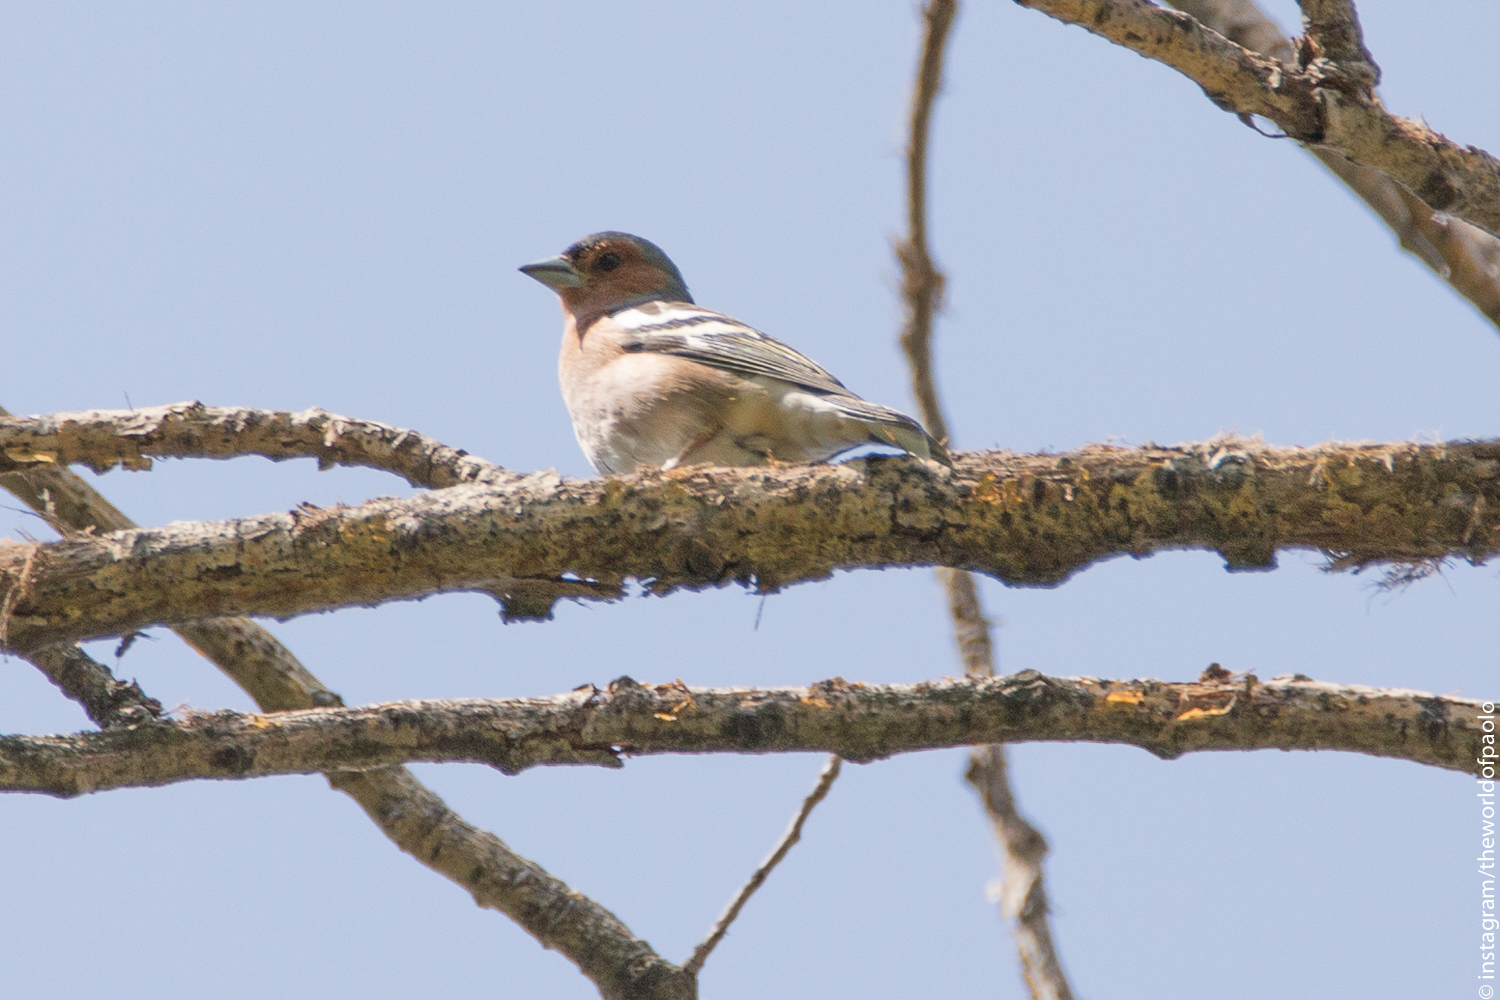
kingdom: Animalia
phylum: Chordata
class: Aves
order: Passeriformes
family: Fringillidae
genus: Fringilla
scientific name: Fringilla coelebs
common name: Common chaffinch
